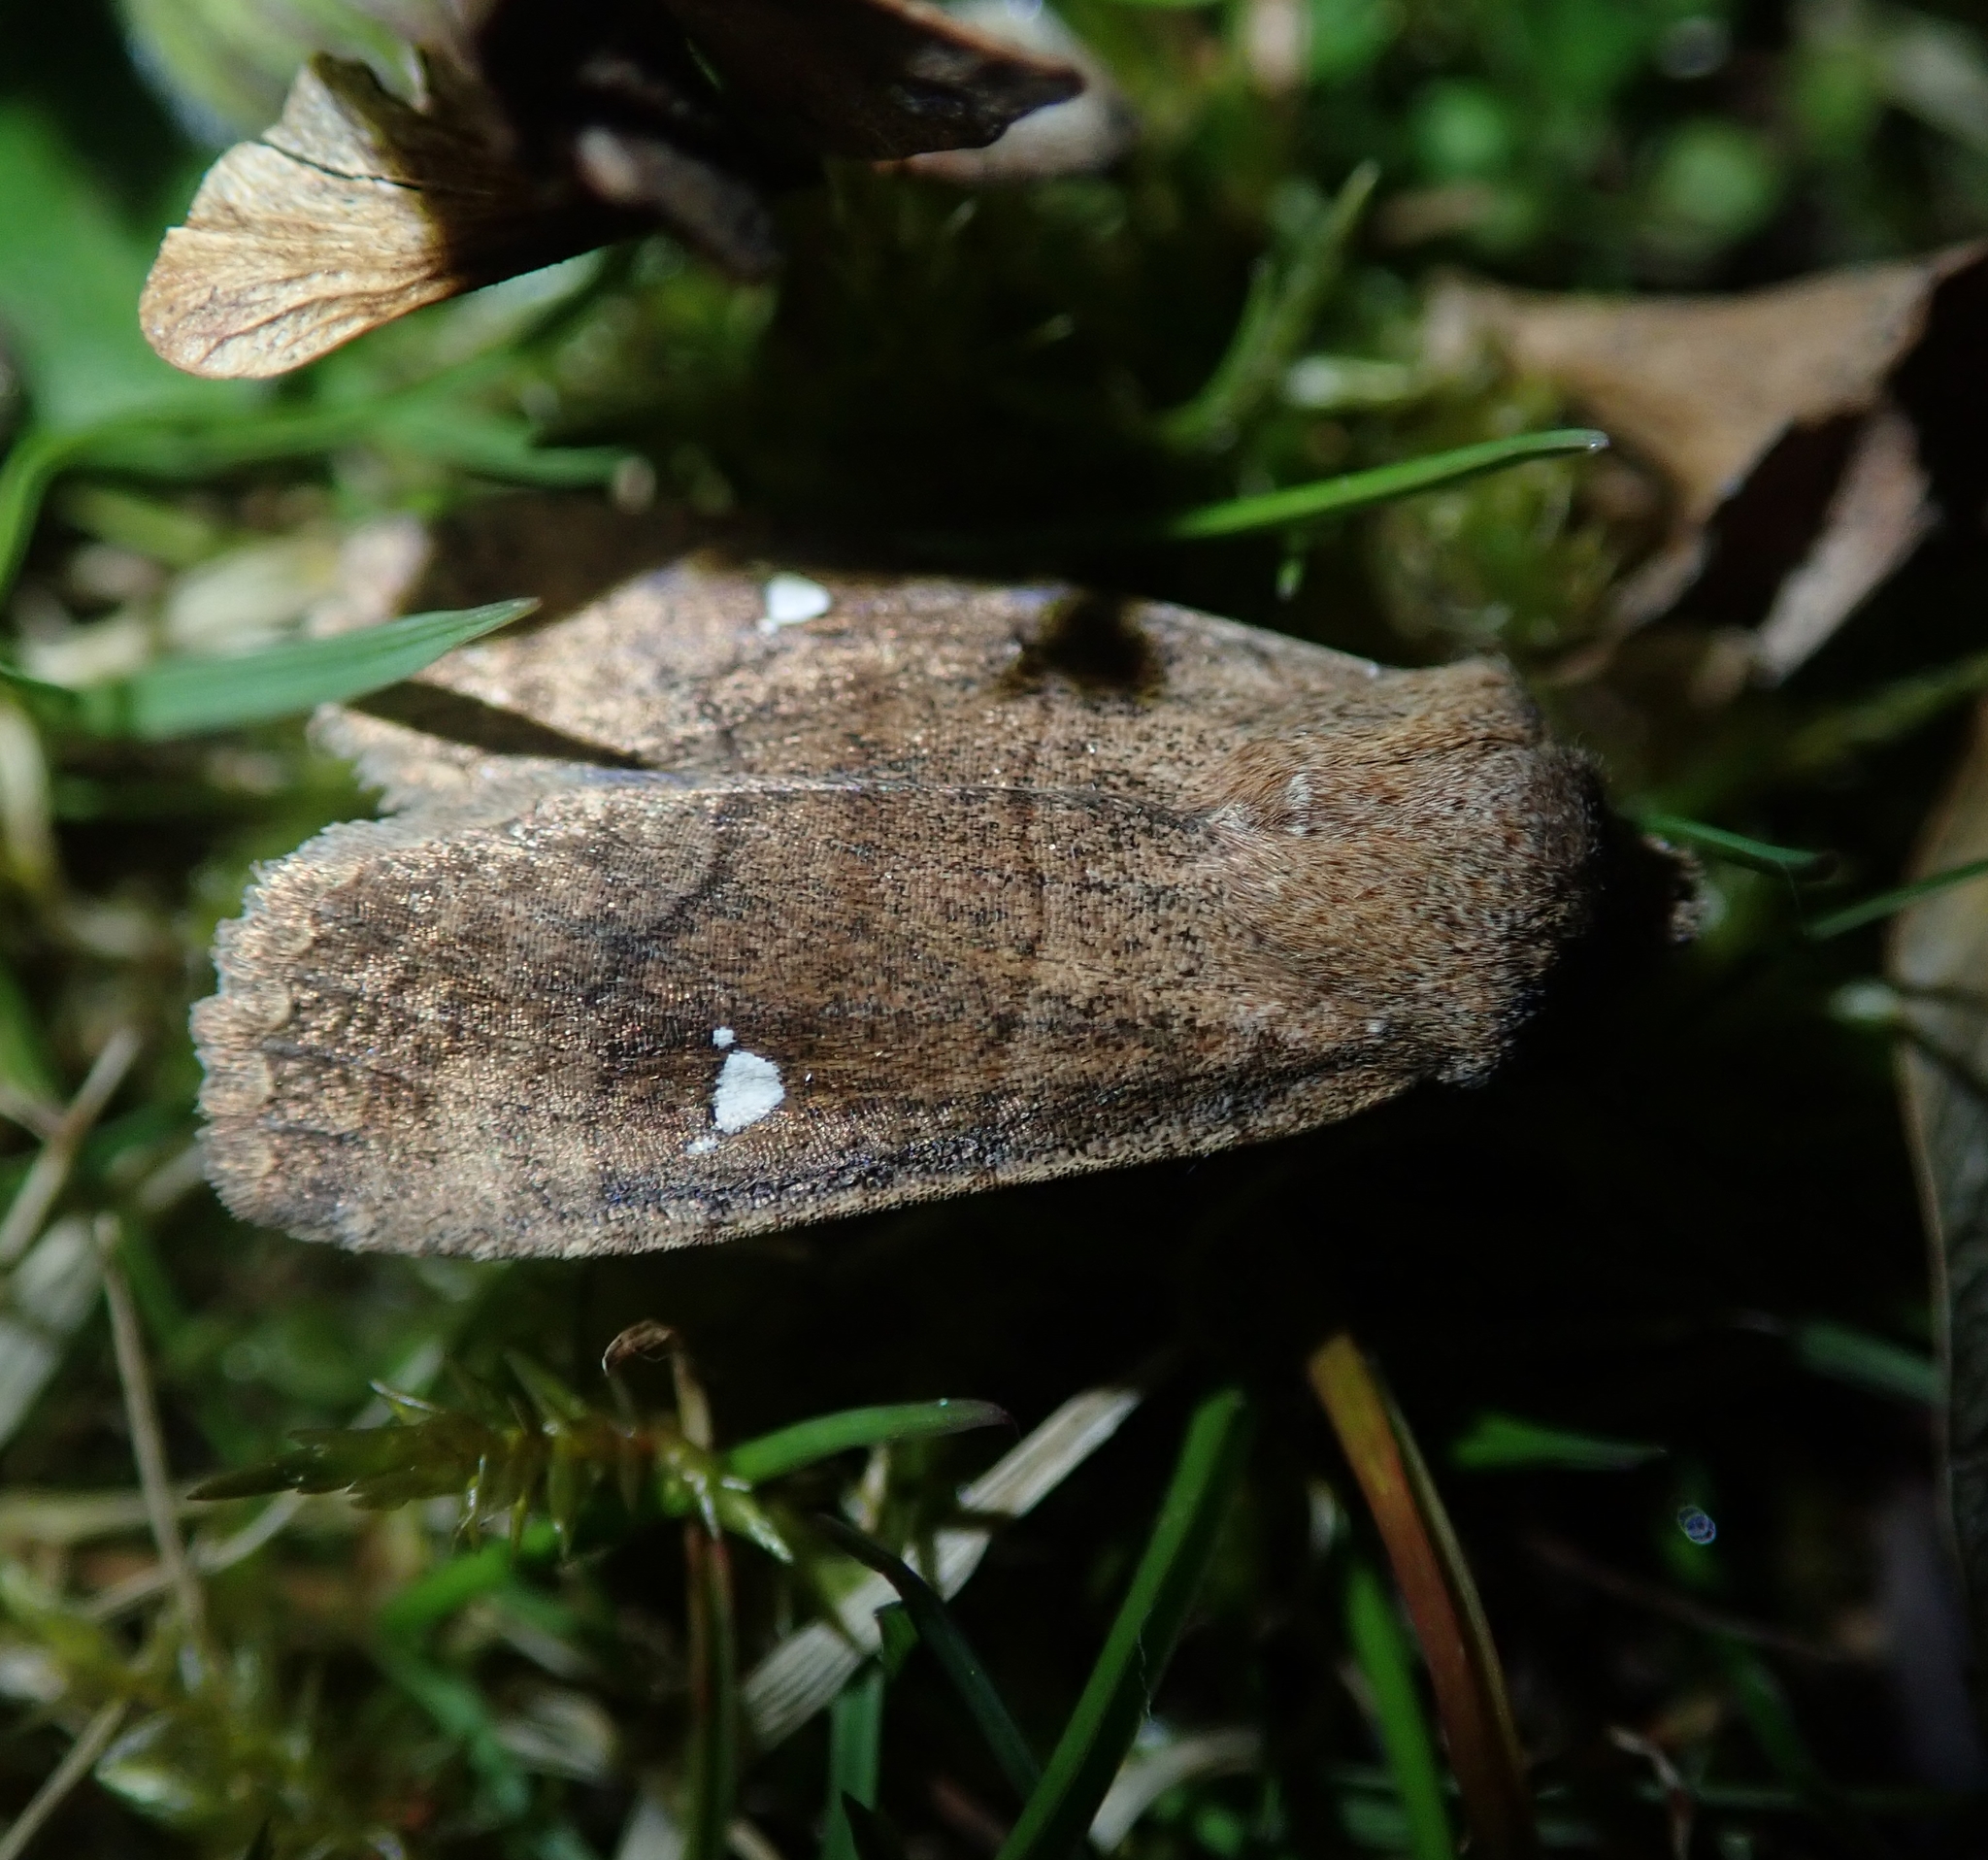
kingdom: Animalia
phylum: Arthropoda
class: Insecta
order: Lepidoptera
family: Noctuidae
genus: Eupsilia
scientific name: Eupsilia transversa
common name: Satellite
